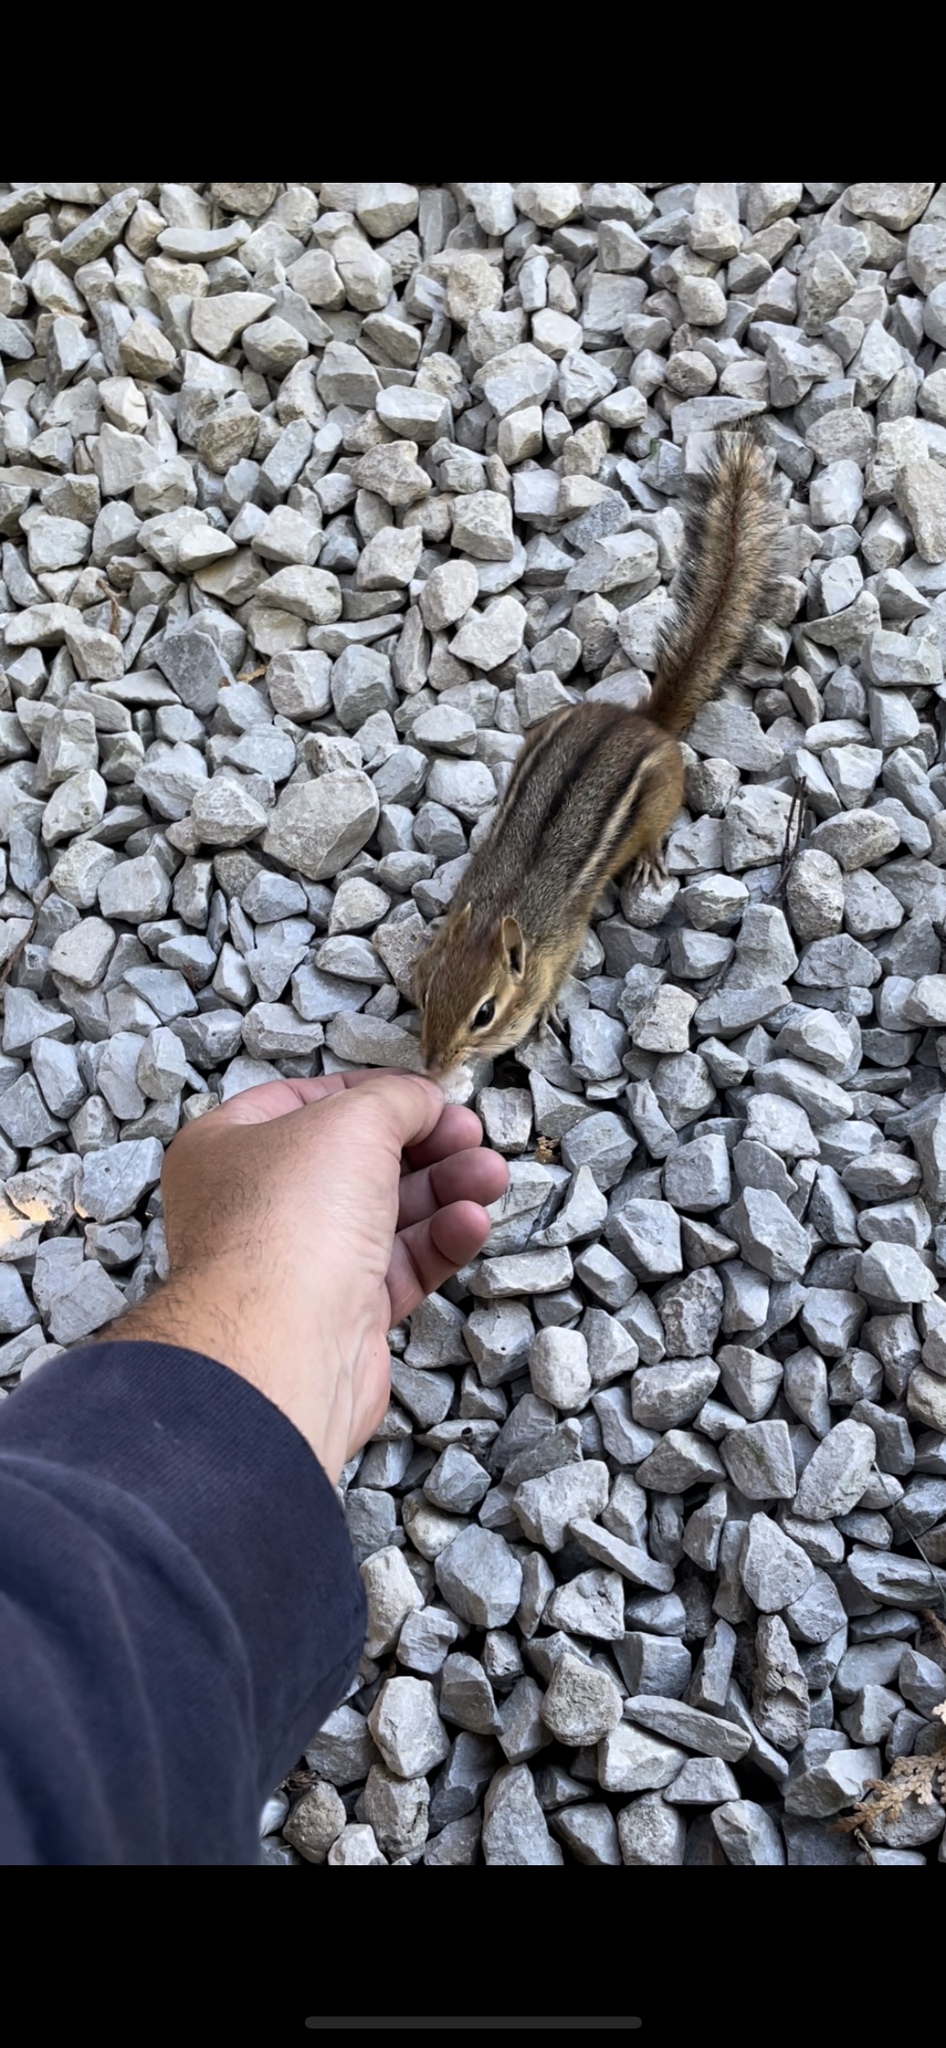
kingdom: Animalia
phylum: Chordata
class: Mammalia
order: Rodentia
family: Sciuridae
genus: Tamias
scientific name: Tamias striatus
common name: Eastern chipmunk
